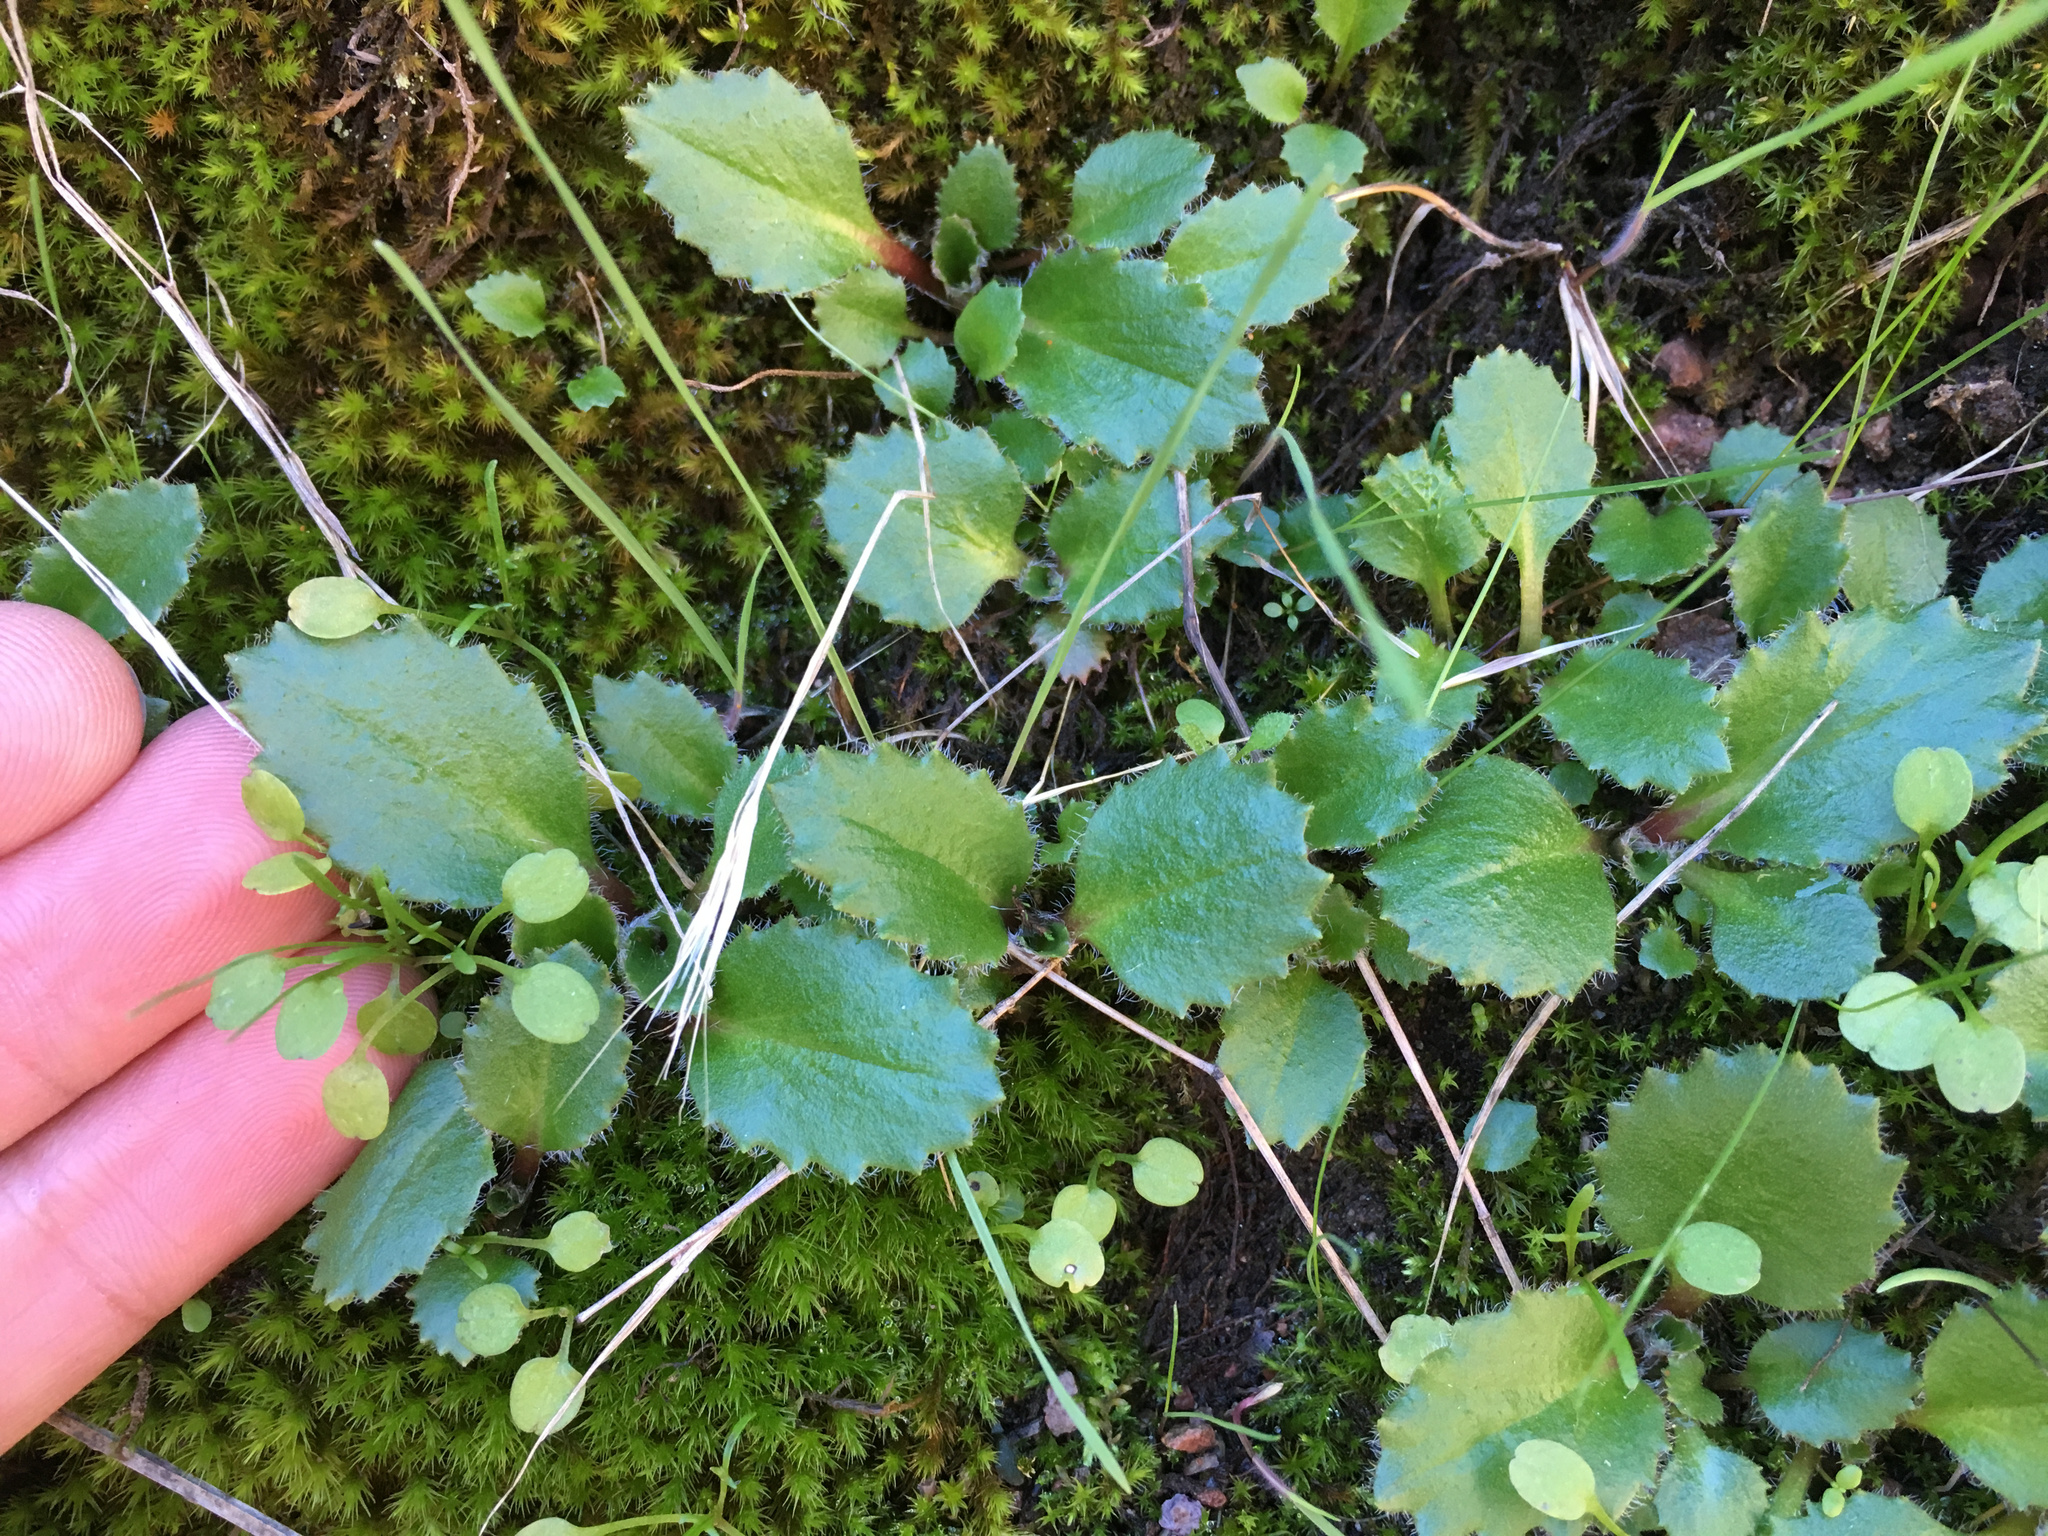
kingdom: Plantae
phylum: Tracheophyta
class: Magnoliopsida
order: Saxifragales
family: Saxifragaceae
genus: Micranthes
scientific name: Micranthes californica
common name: California saxifrage
